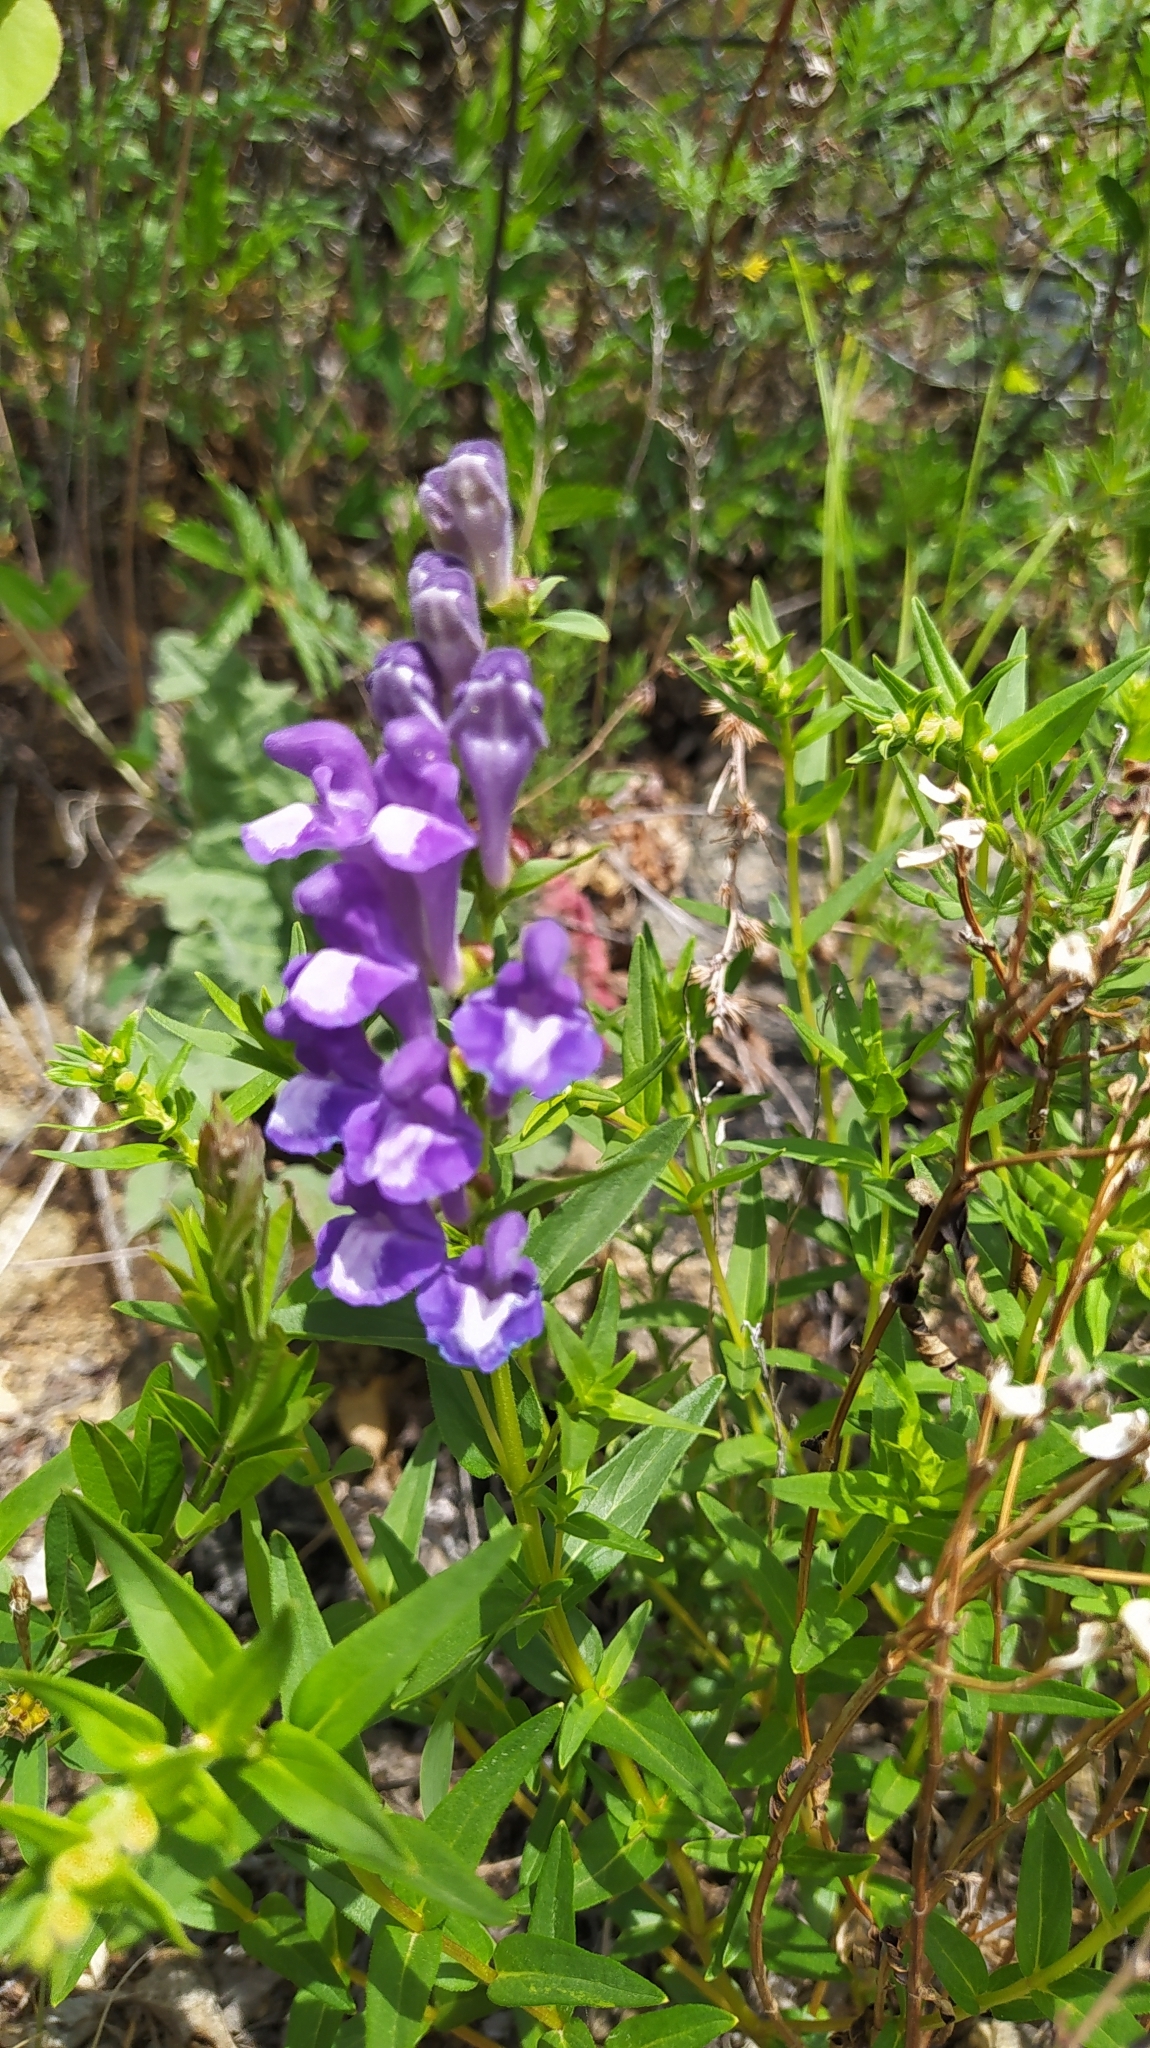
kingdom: Plantae
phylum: Tracheophyta
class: Magnoliopsida
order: Lamiales
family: Lamiaceae
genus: Scutellaria
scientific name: Scutellaria baicalensis
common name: Baikal skullcap
